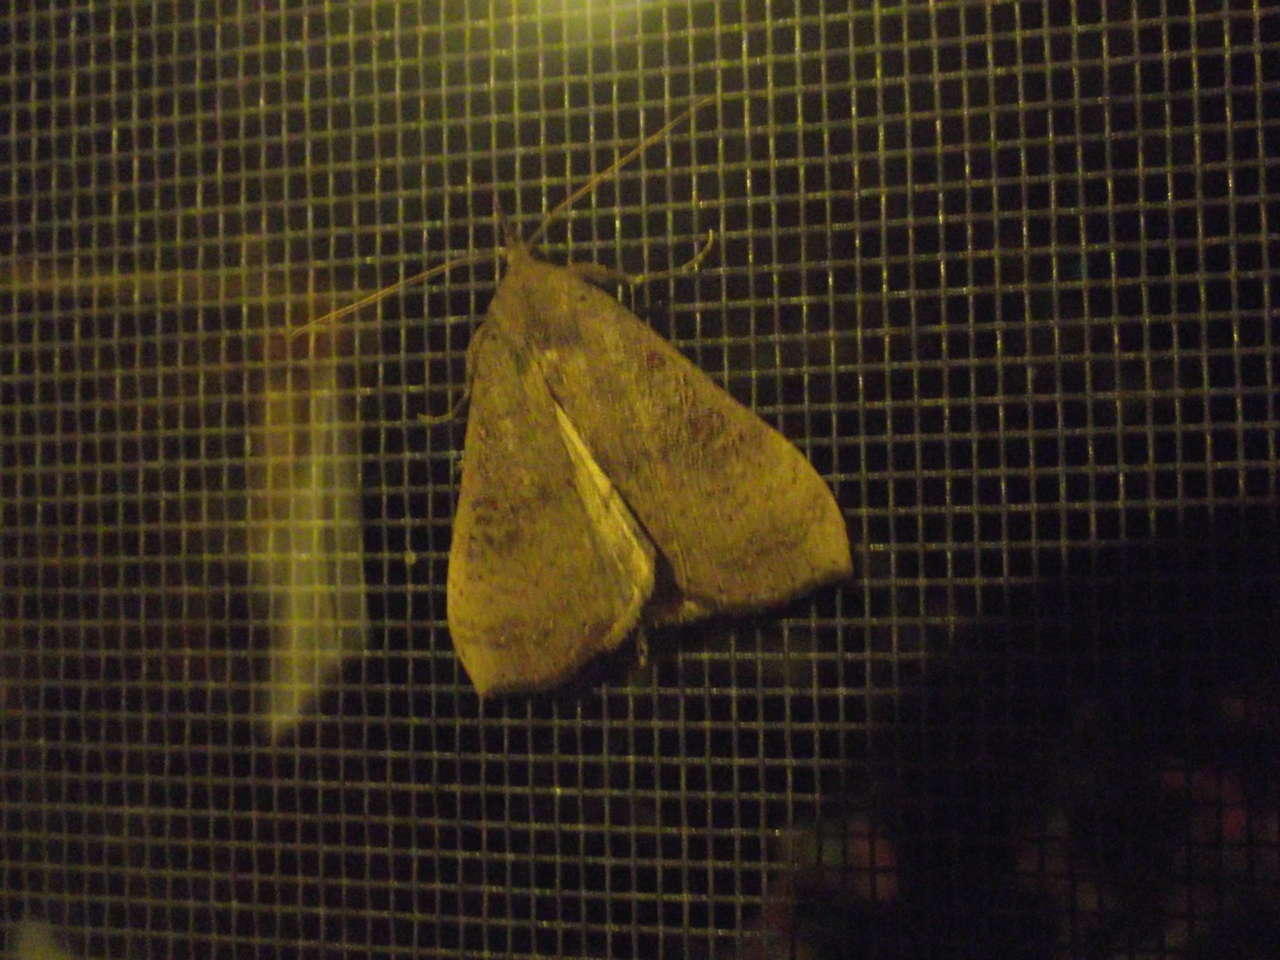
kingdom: Animalia
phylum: Arthropoda
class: Insecta
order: Lepidoptera
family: Erebidae
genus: Rhapsa
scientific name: Rhapsa suscitatalis
